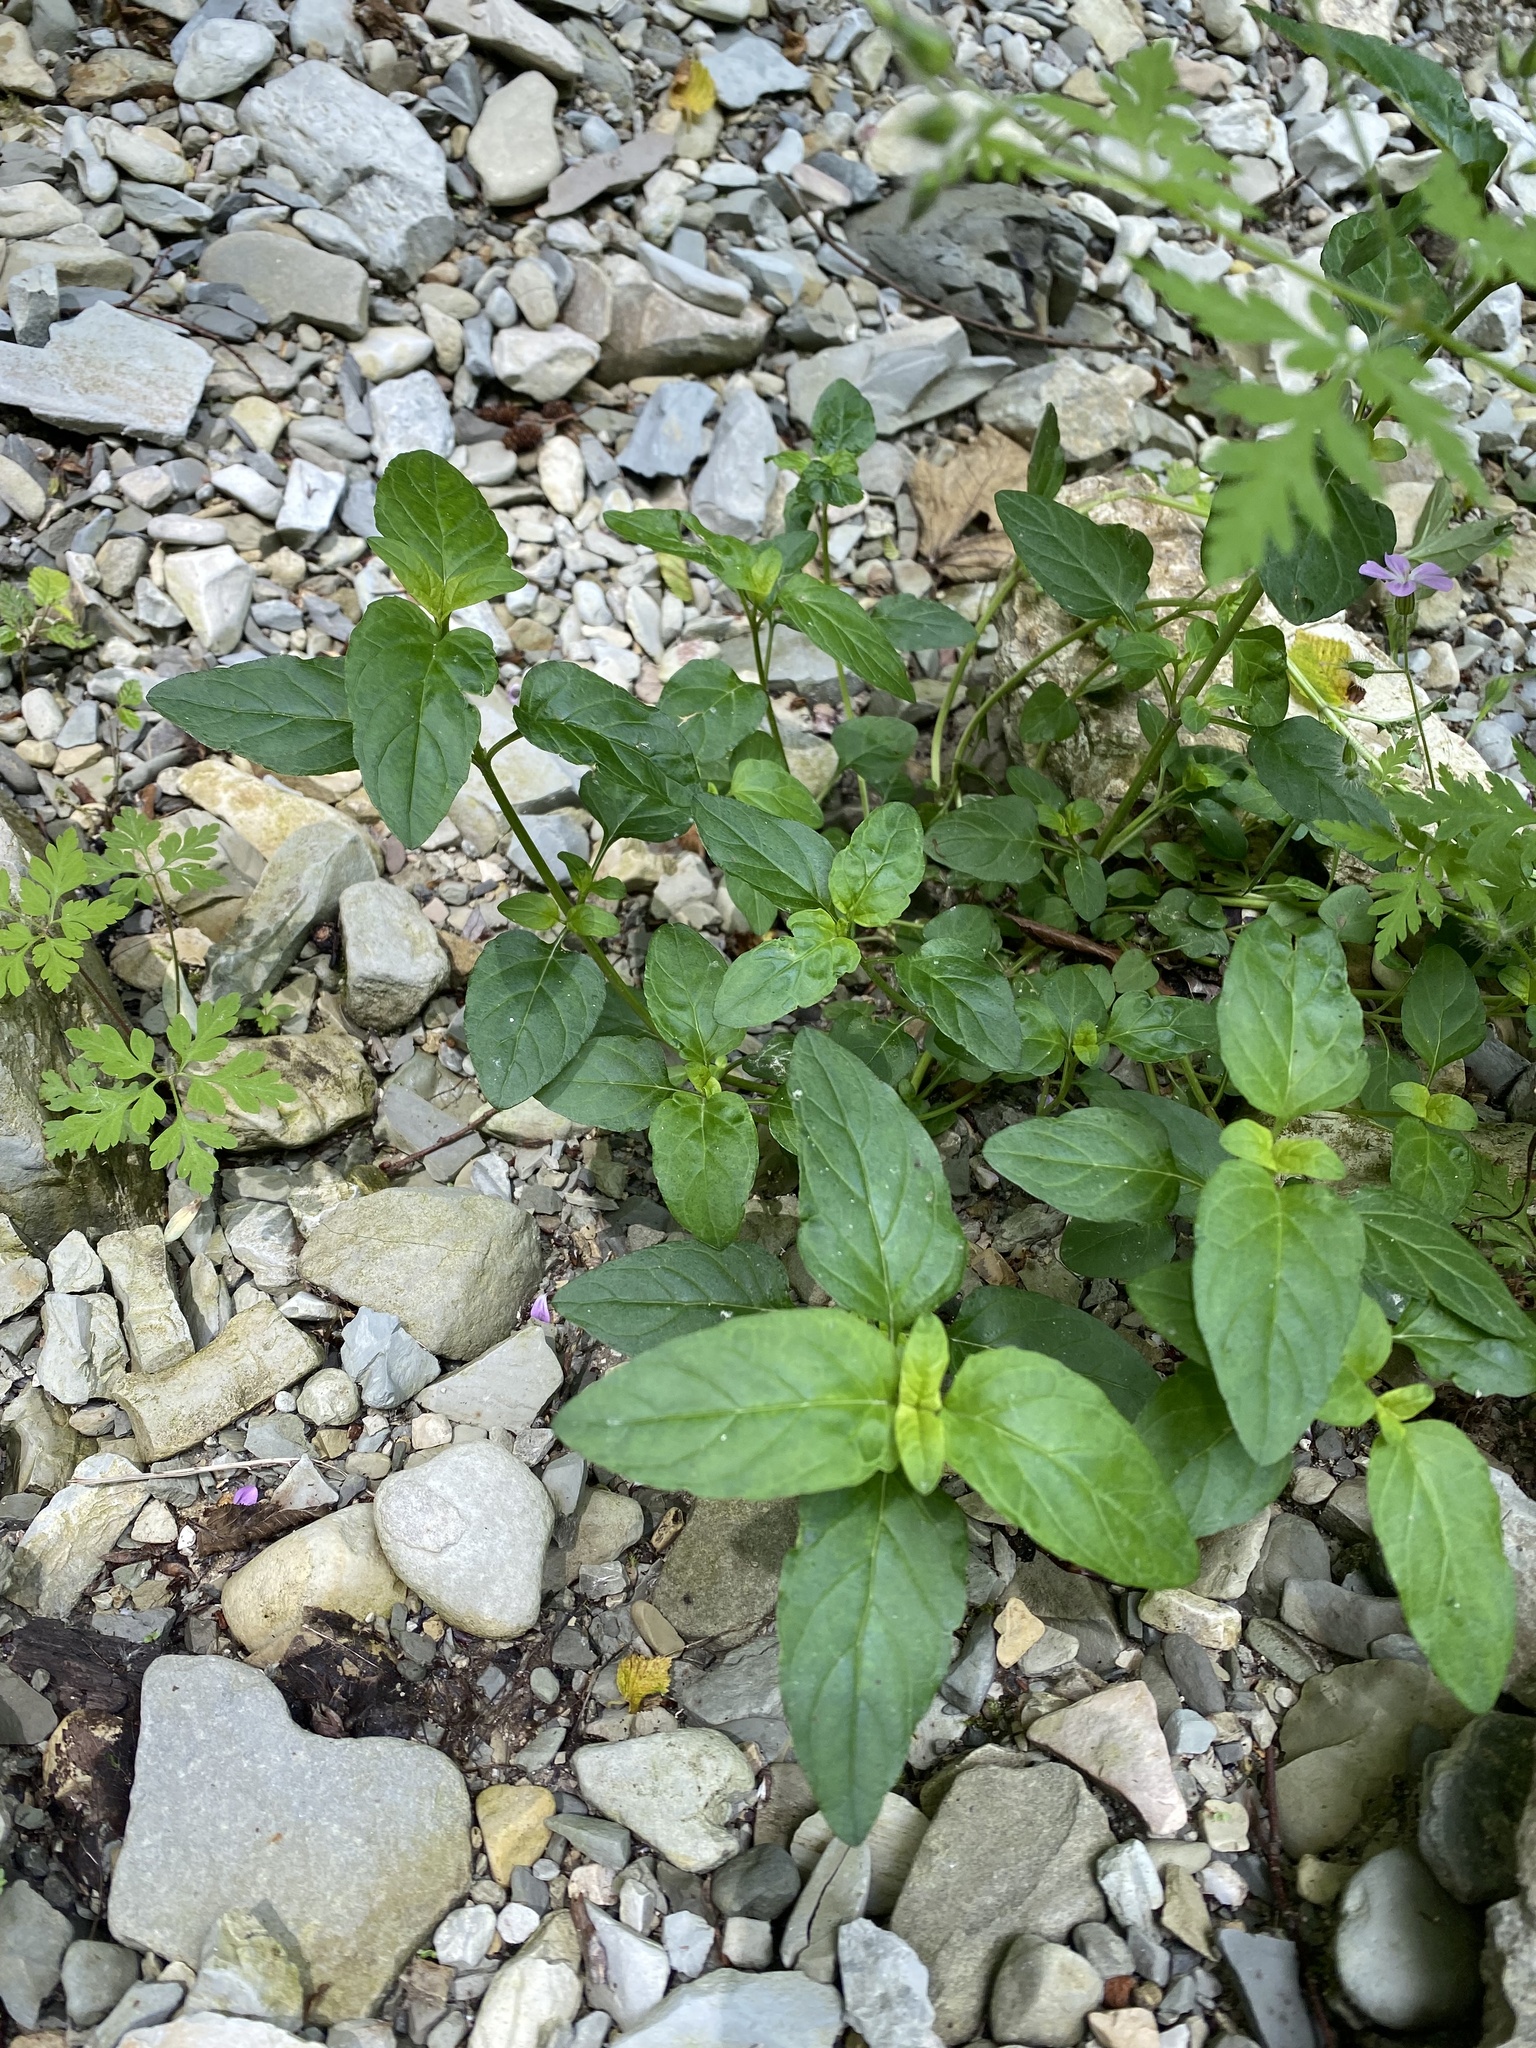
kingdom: Plantae
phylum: Tracheophyta
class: Magnoliopsida
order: Lamiales
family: Lamiaceae
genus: Prunella
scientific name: Prunella vulgaris
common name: Heal-all
